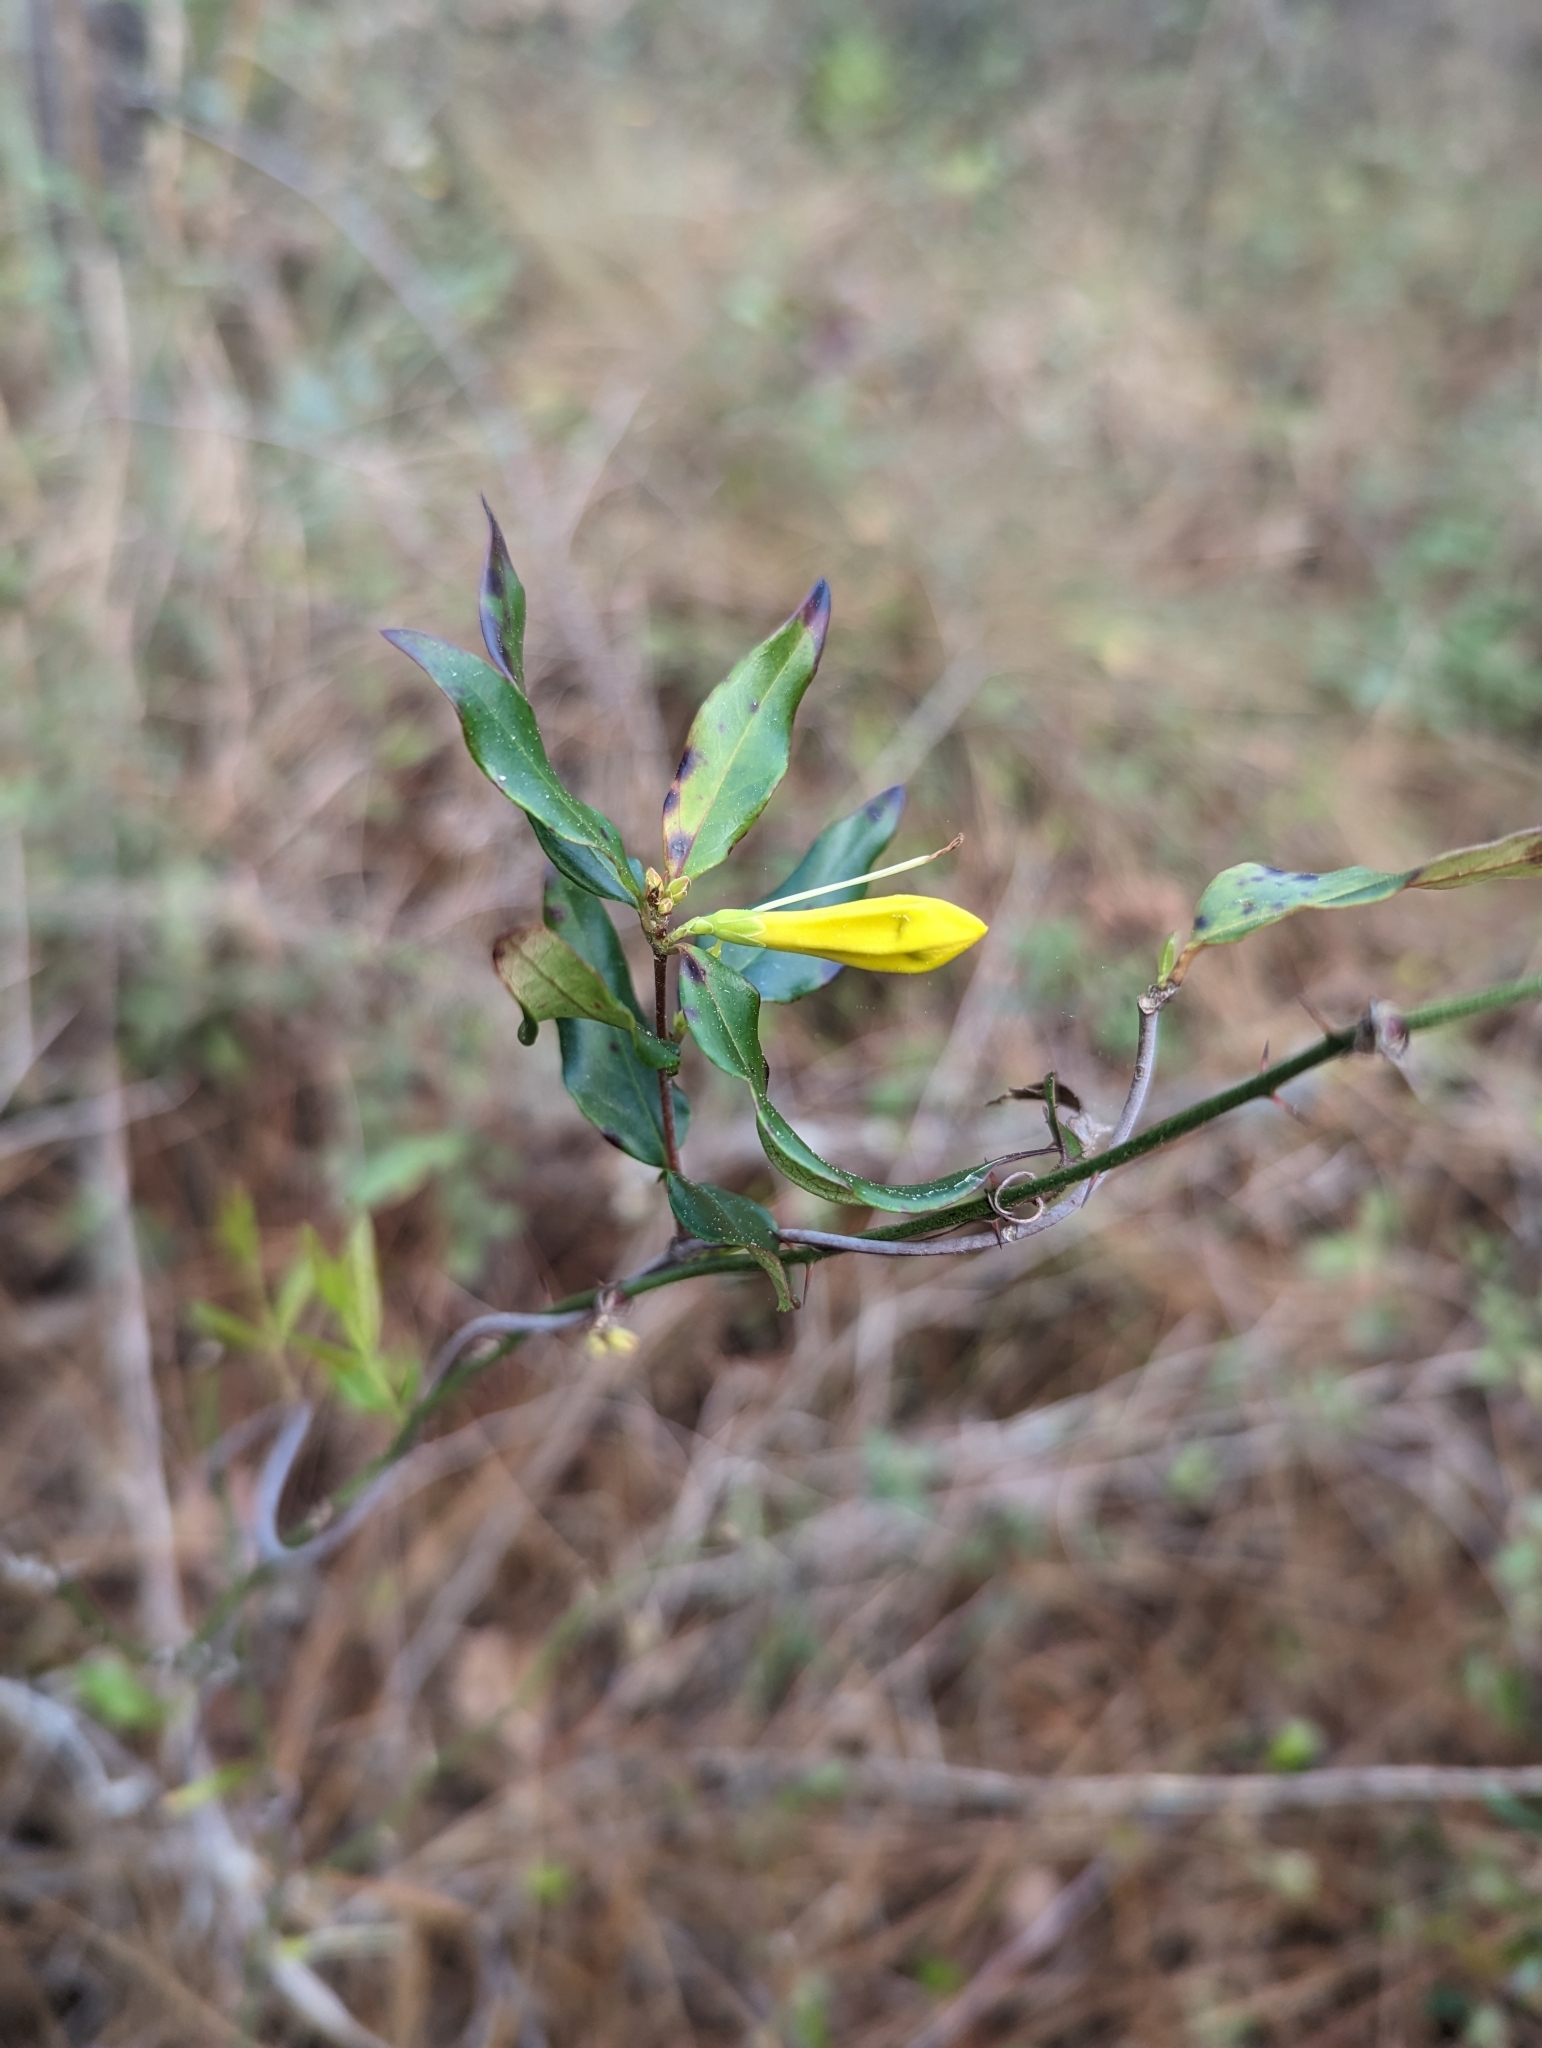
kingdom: Plantae
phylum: Tracheophyta
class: Magnoliopsida
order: Gentianales
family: Gelsemiaceae
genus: Gelsemium
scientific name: Gelsemium sempervirens
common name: Carolina-jasmine
